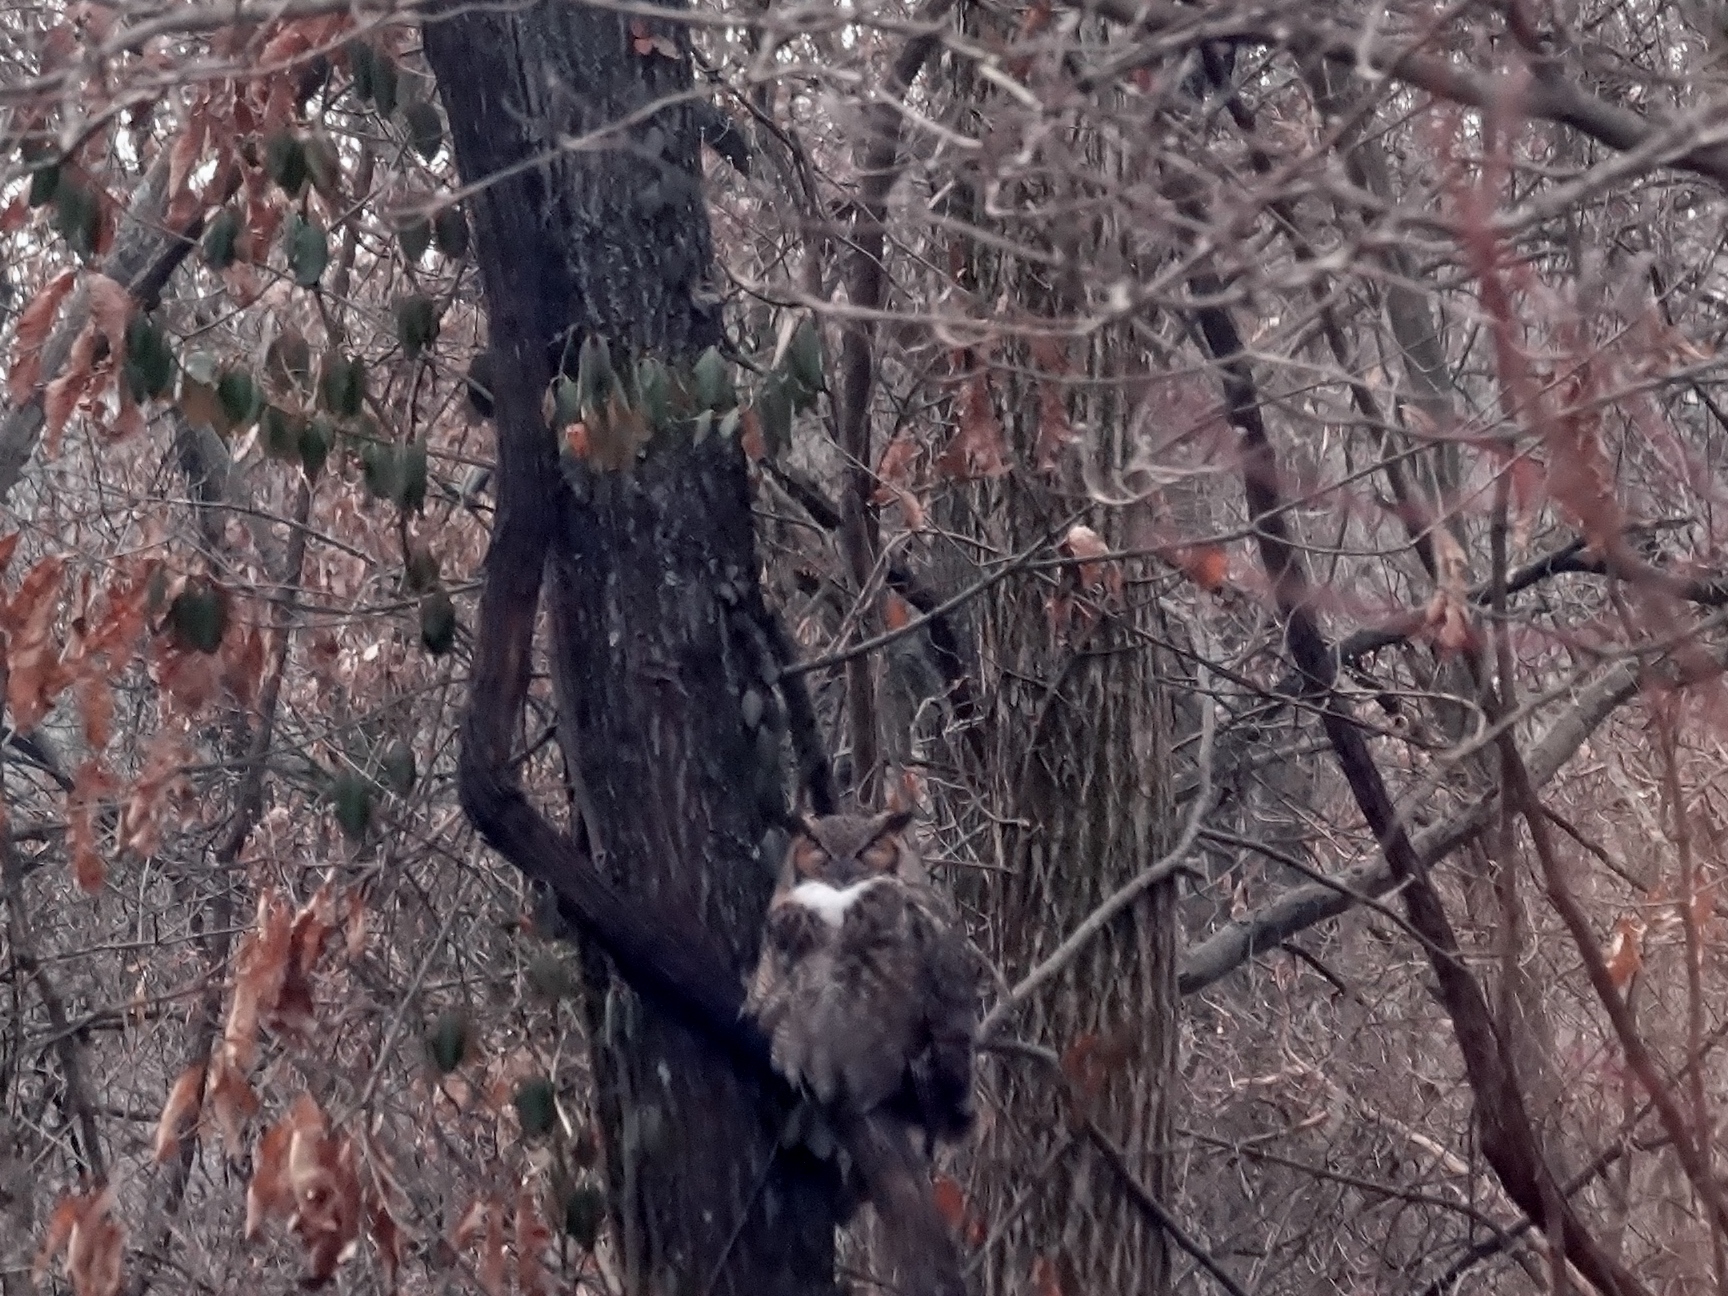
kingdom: Animalia
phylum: Chordata
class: Aves
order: Strigiformes
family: Strigidae
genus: Bubo
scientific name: Bubo virginianus
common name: Great horned owl
